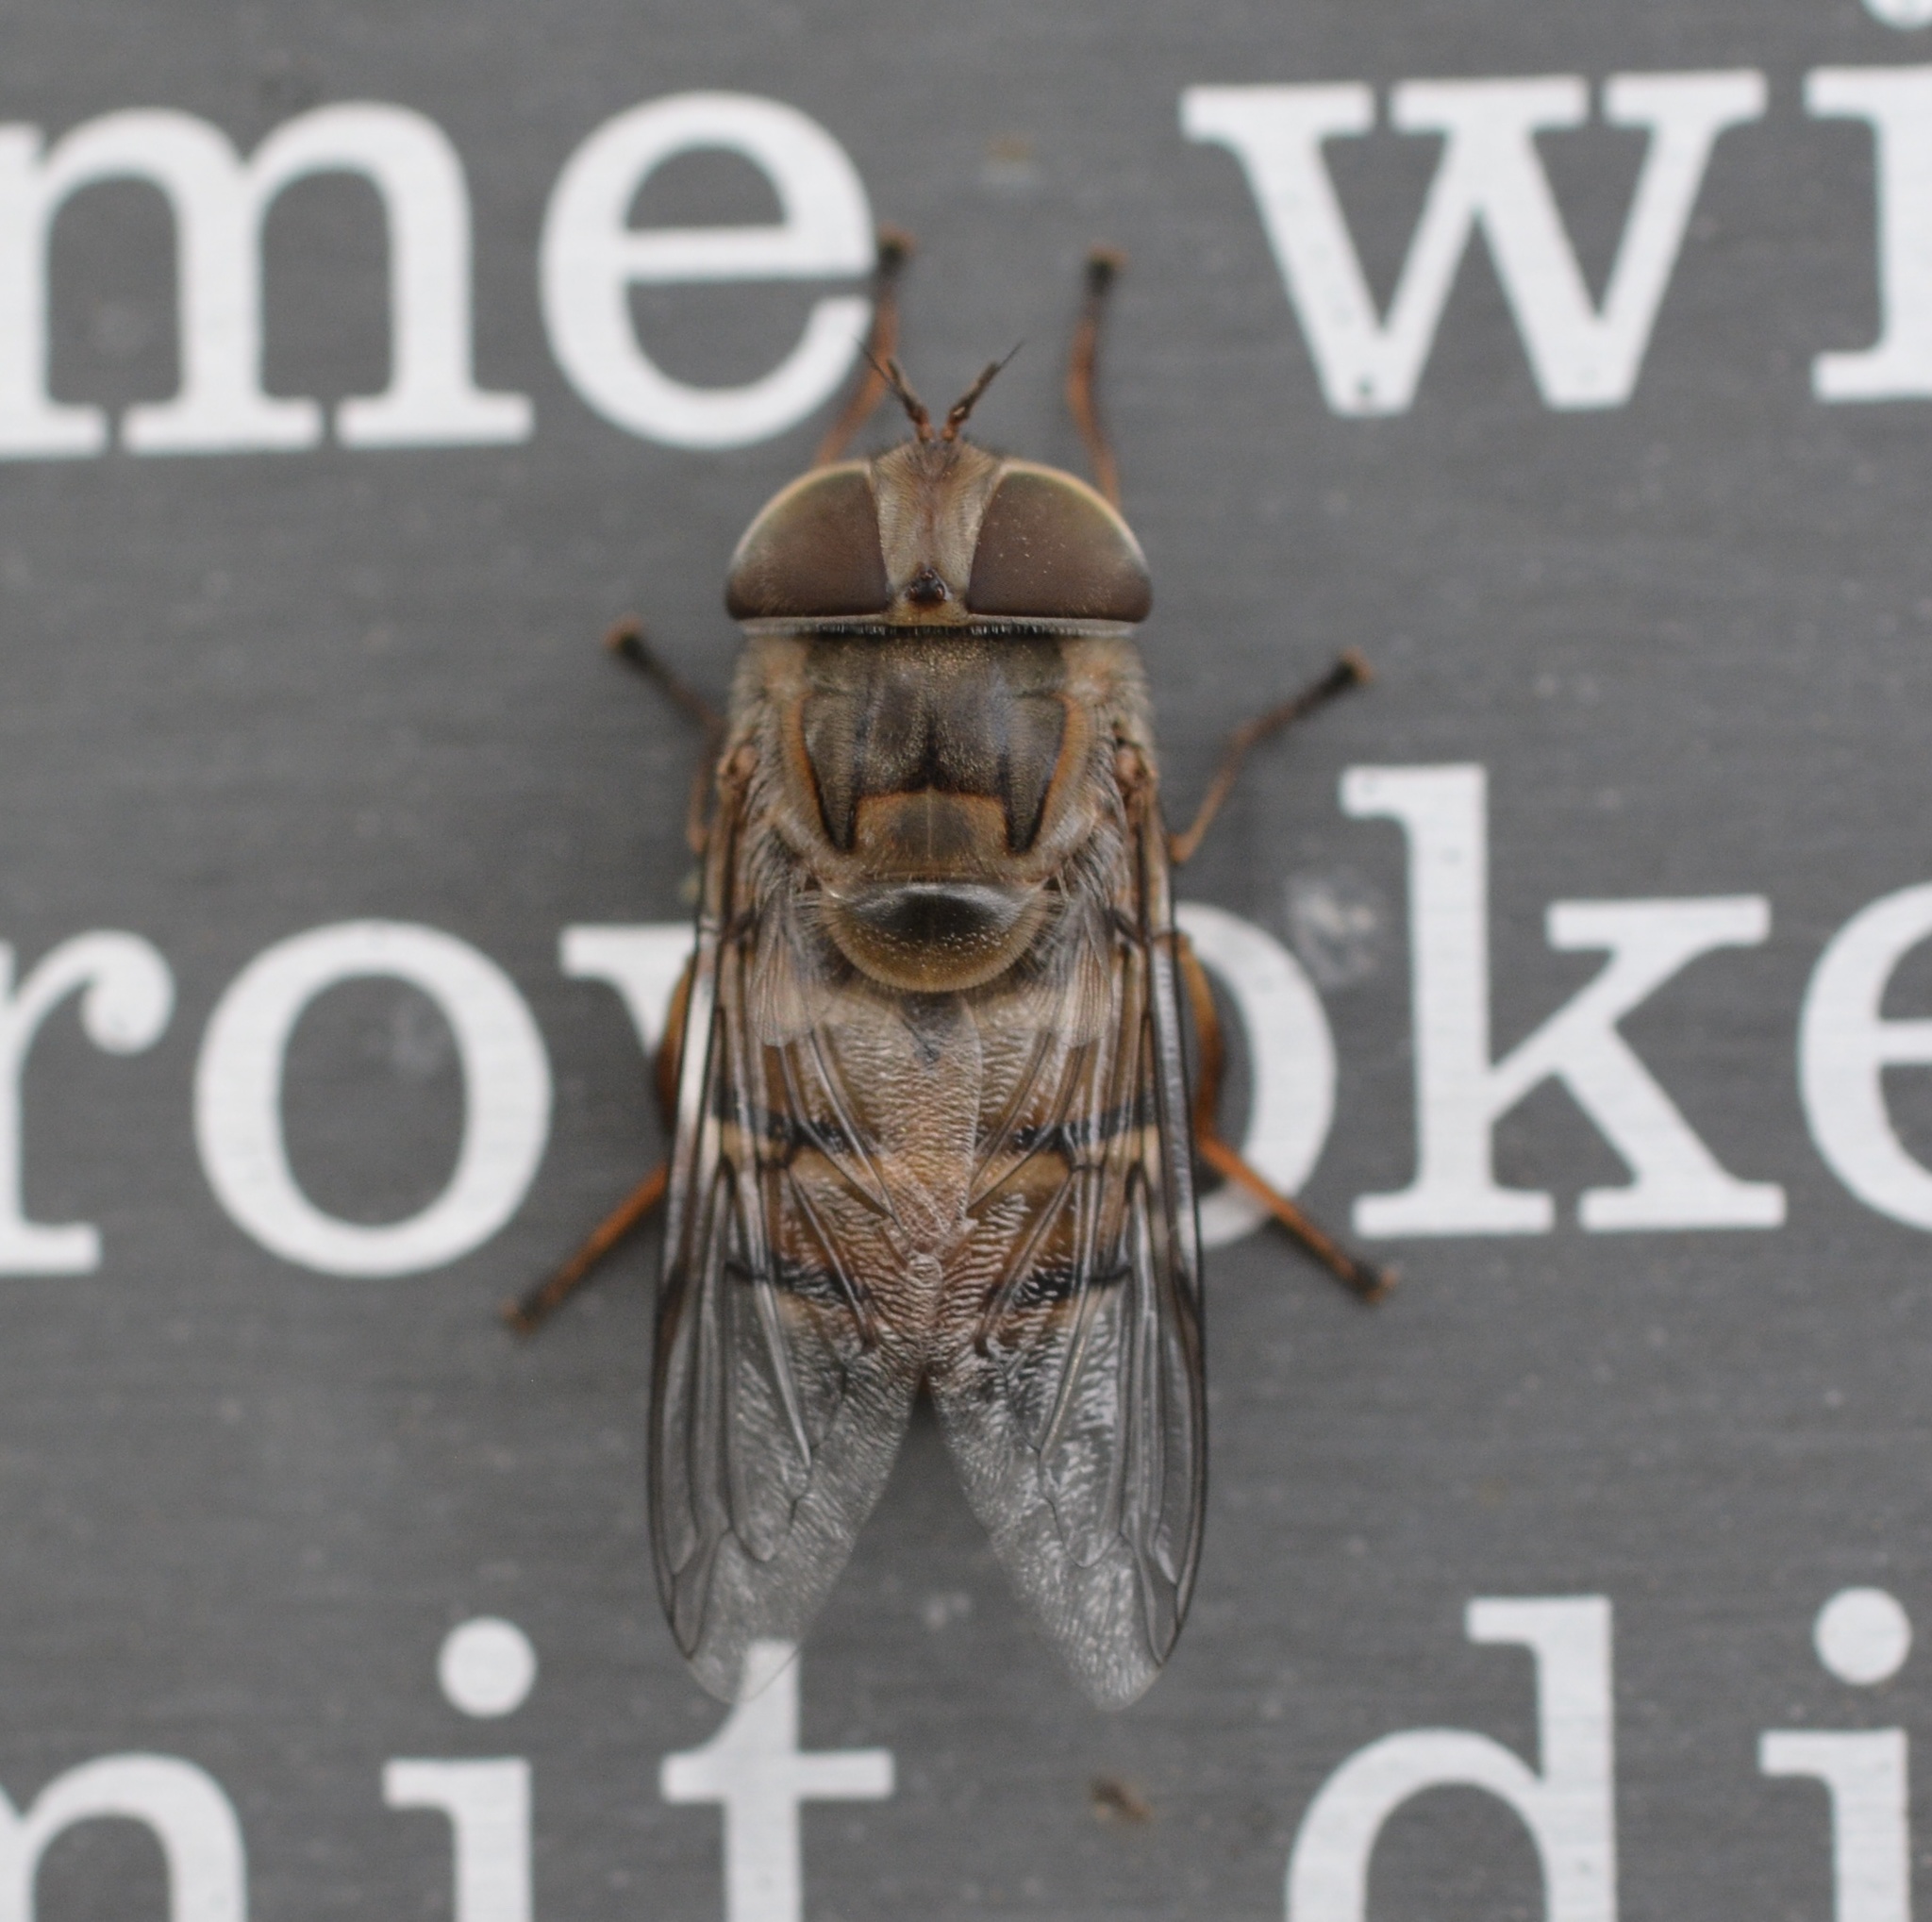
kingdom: Animalia
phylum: Arthropoda
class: Insecta
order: Diptera
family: Syrphidae
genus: Copestylum
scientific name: Copestylum isabellina
